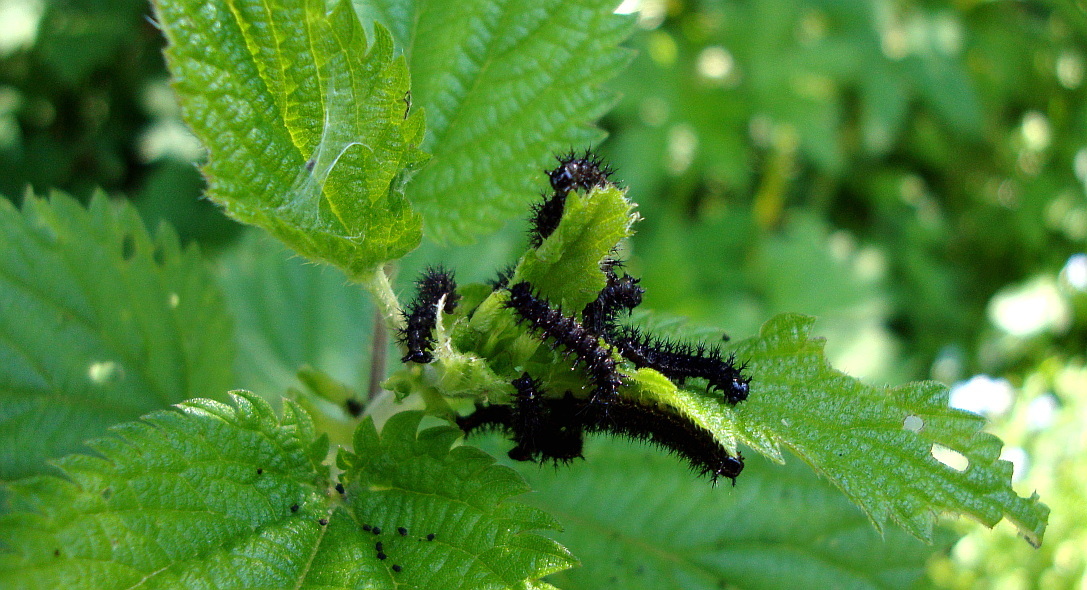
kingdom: Animalia
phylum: Arthropoda
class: Insecta
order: Lepidoptera
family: Nymphalidae
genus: Araschnia
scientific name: Araschnia levana
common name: Map butterfly
